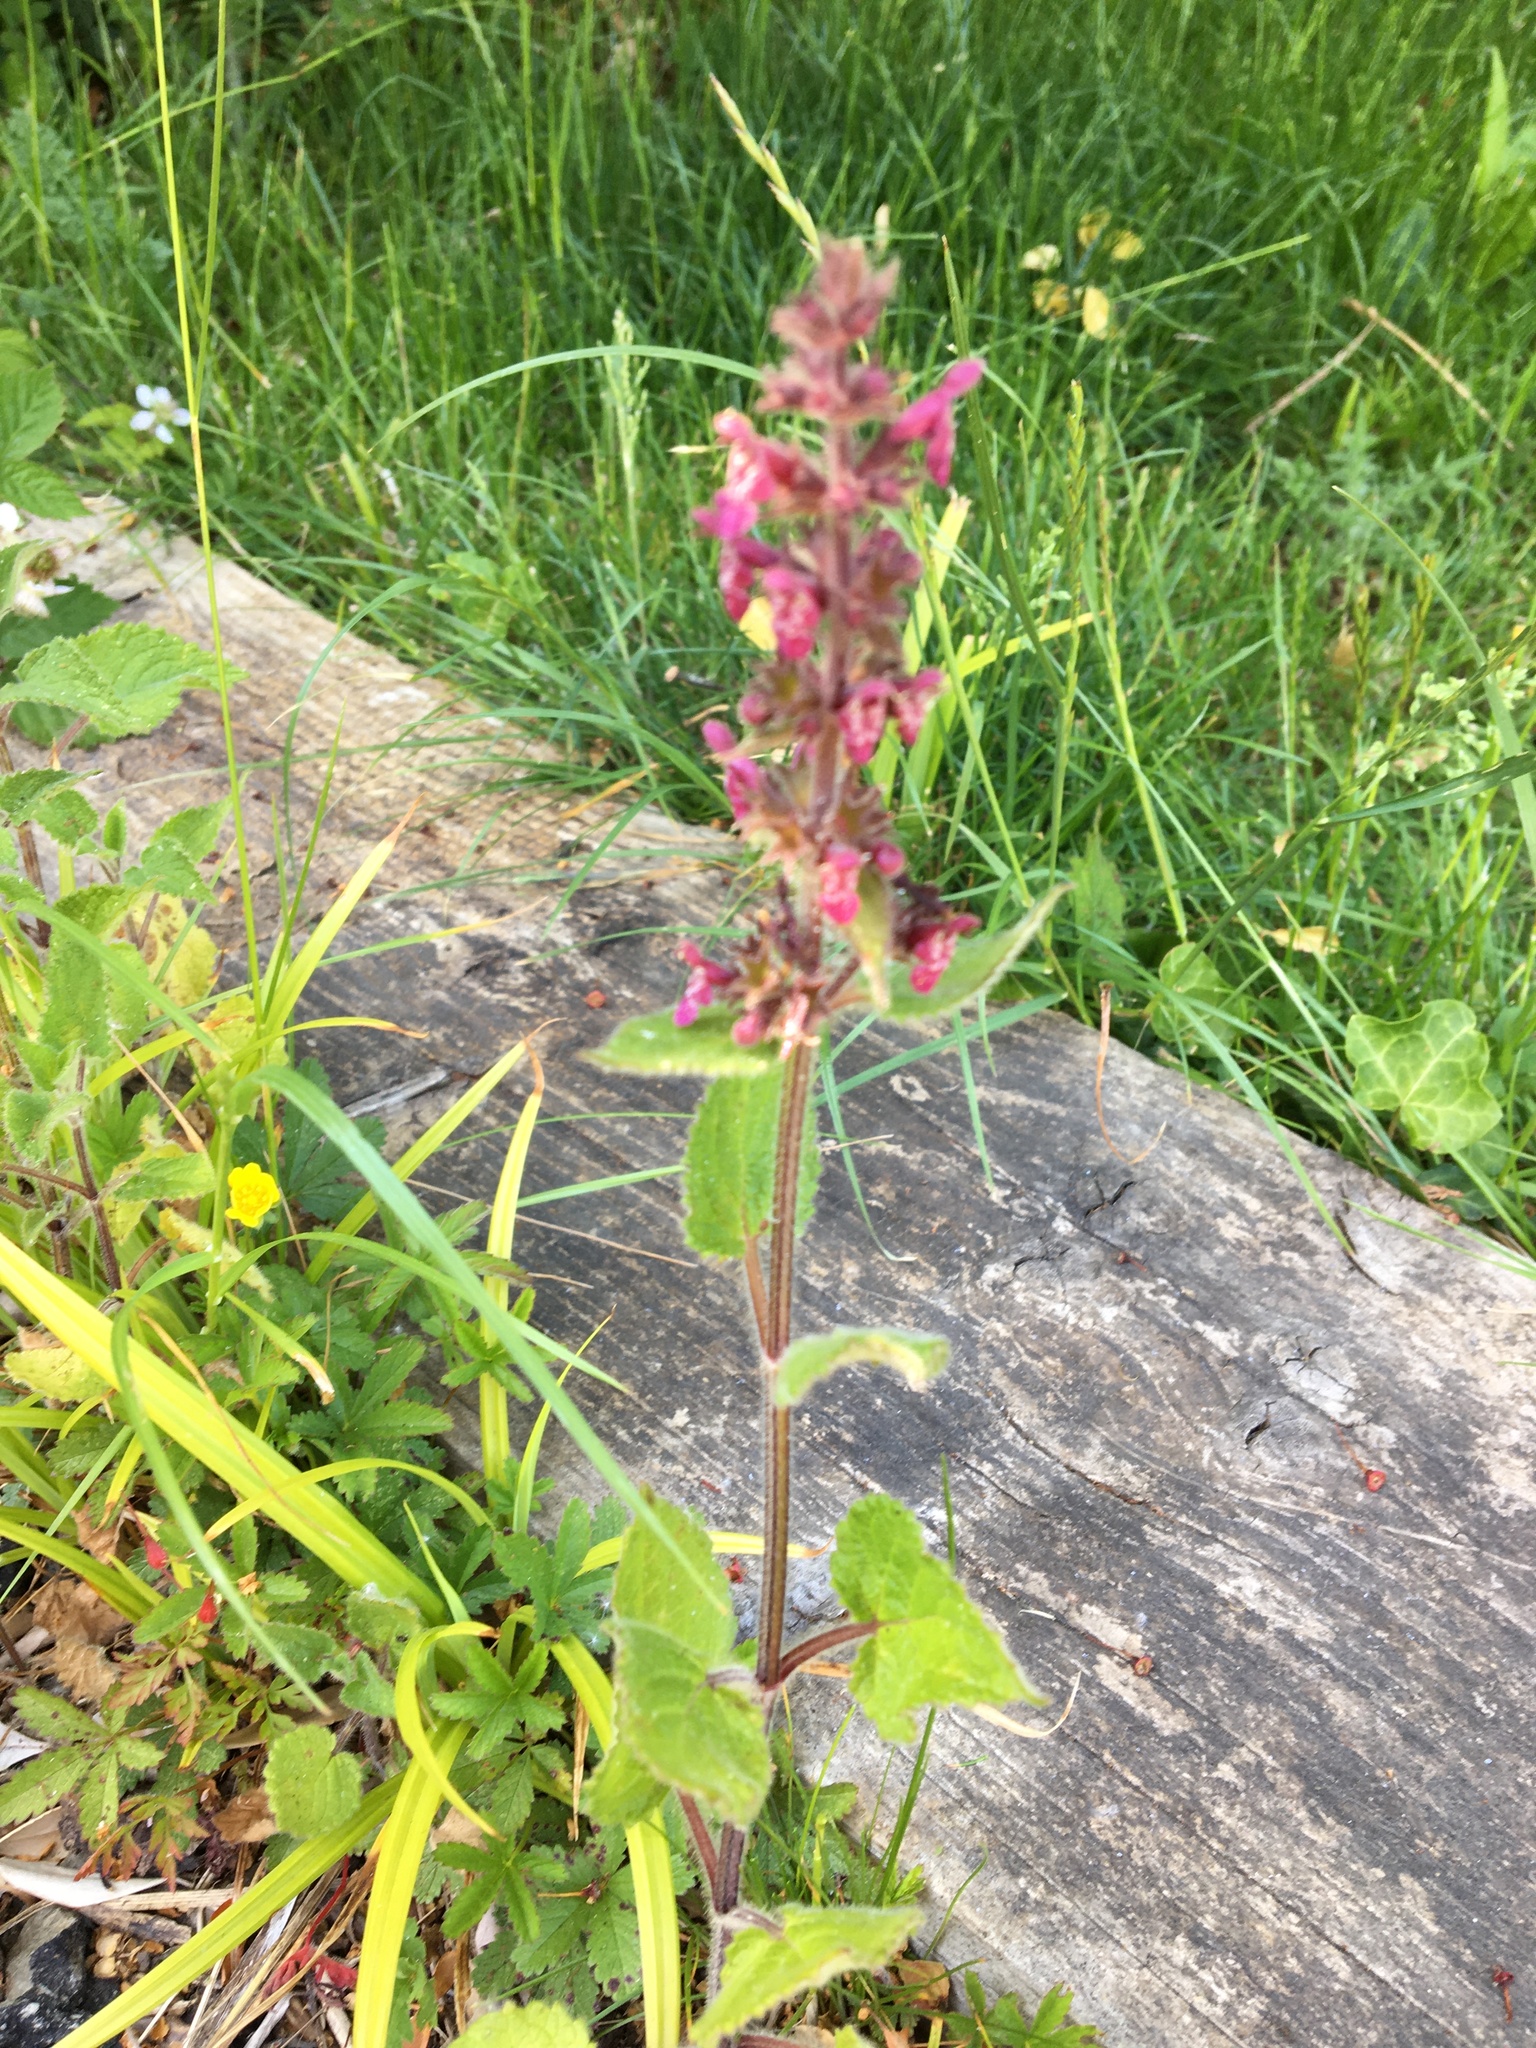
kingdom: Plantae
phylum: Tracheophyta
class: Magnoliopsida
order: Lamiales
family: Lamiaceae
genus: Stachys
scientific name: Stachys sylvatica
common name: Hedge woundwort
